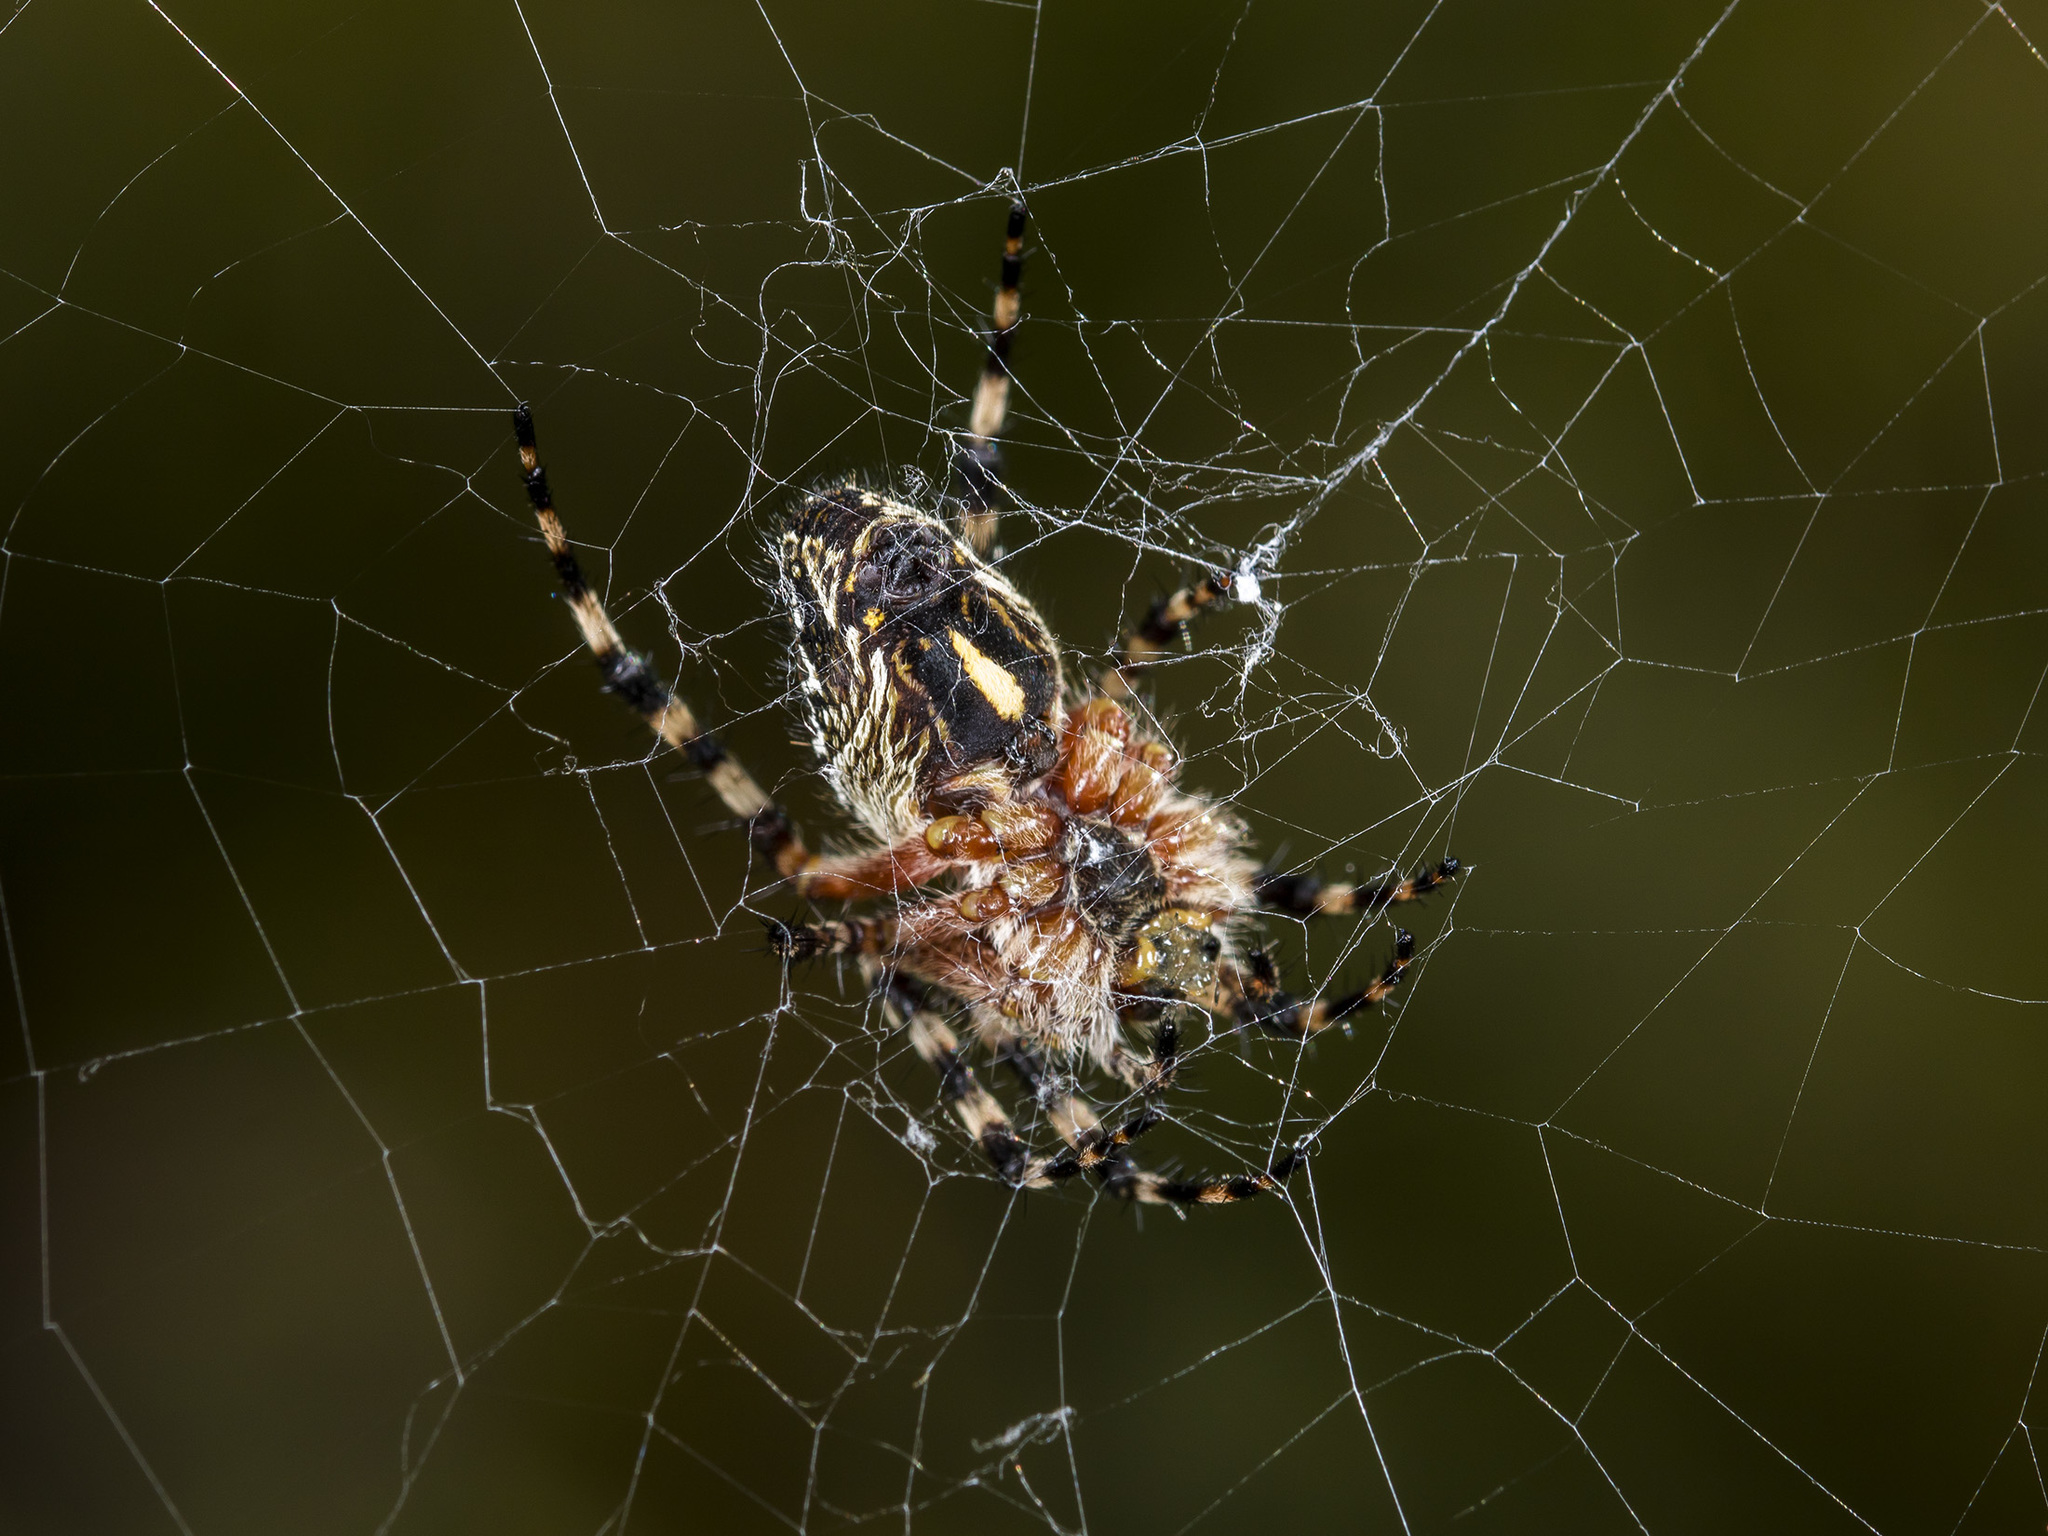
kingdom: Animalia
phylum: Arthropoda
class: Arachnida
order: Araneae
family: Araneidae
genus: Aculepeira
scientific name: Aculepeira packardi
